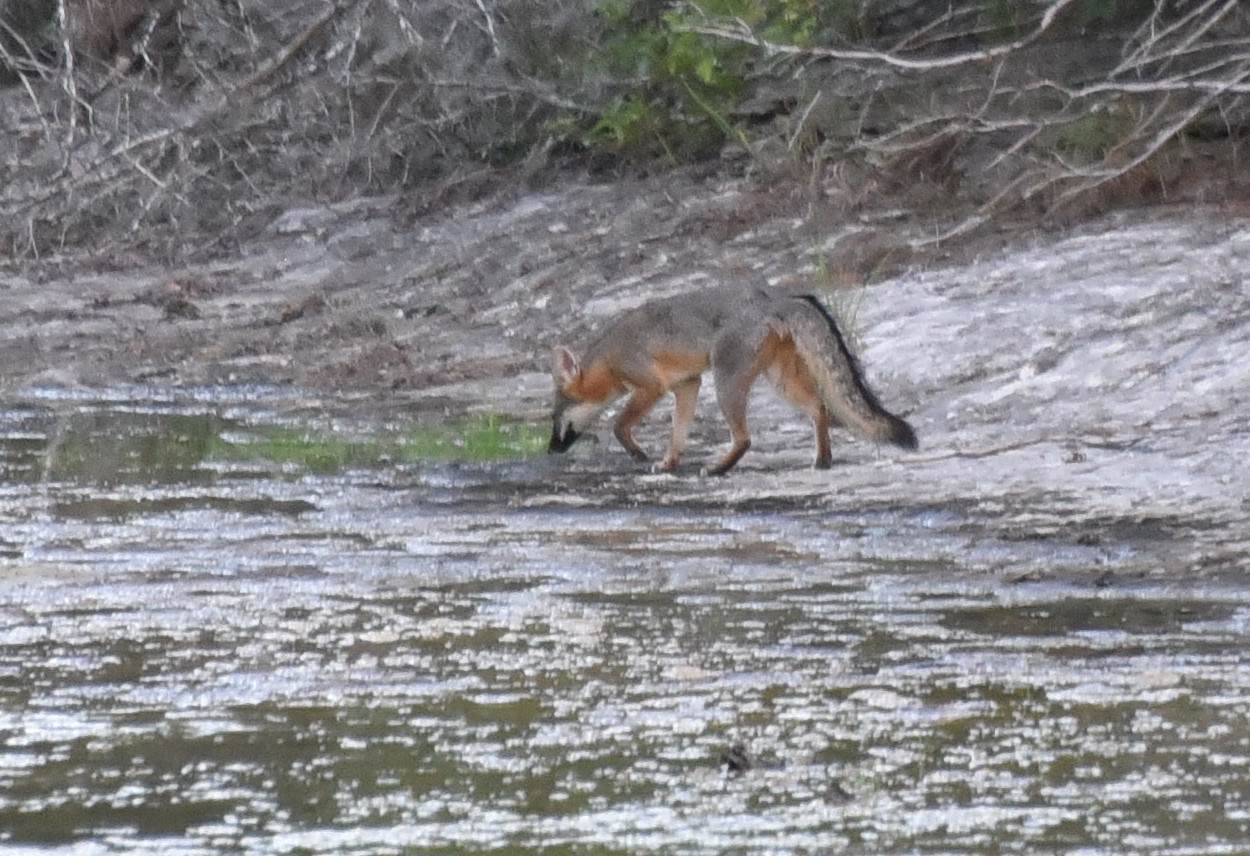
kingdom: Animalia
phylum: Chordata
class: Mammalia
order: Carnivora
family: Canidae
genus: Urocyon
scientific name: Urocyon cinereoargenteus
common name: Gray fox
